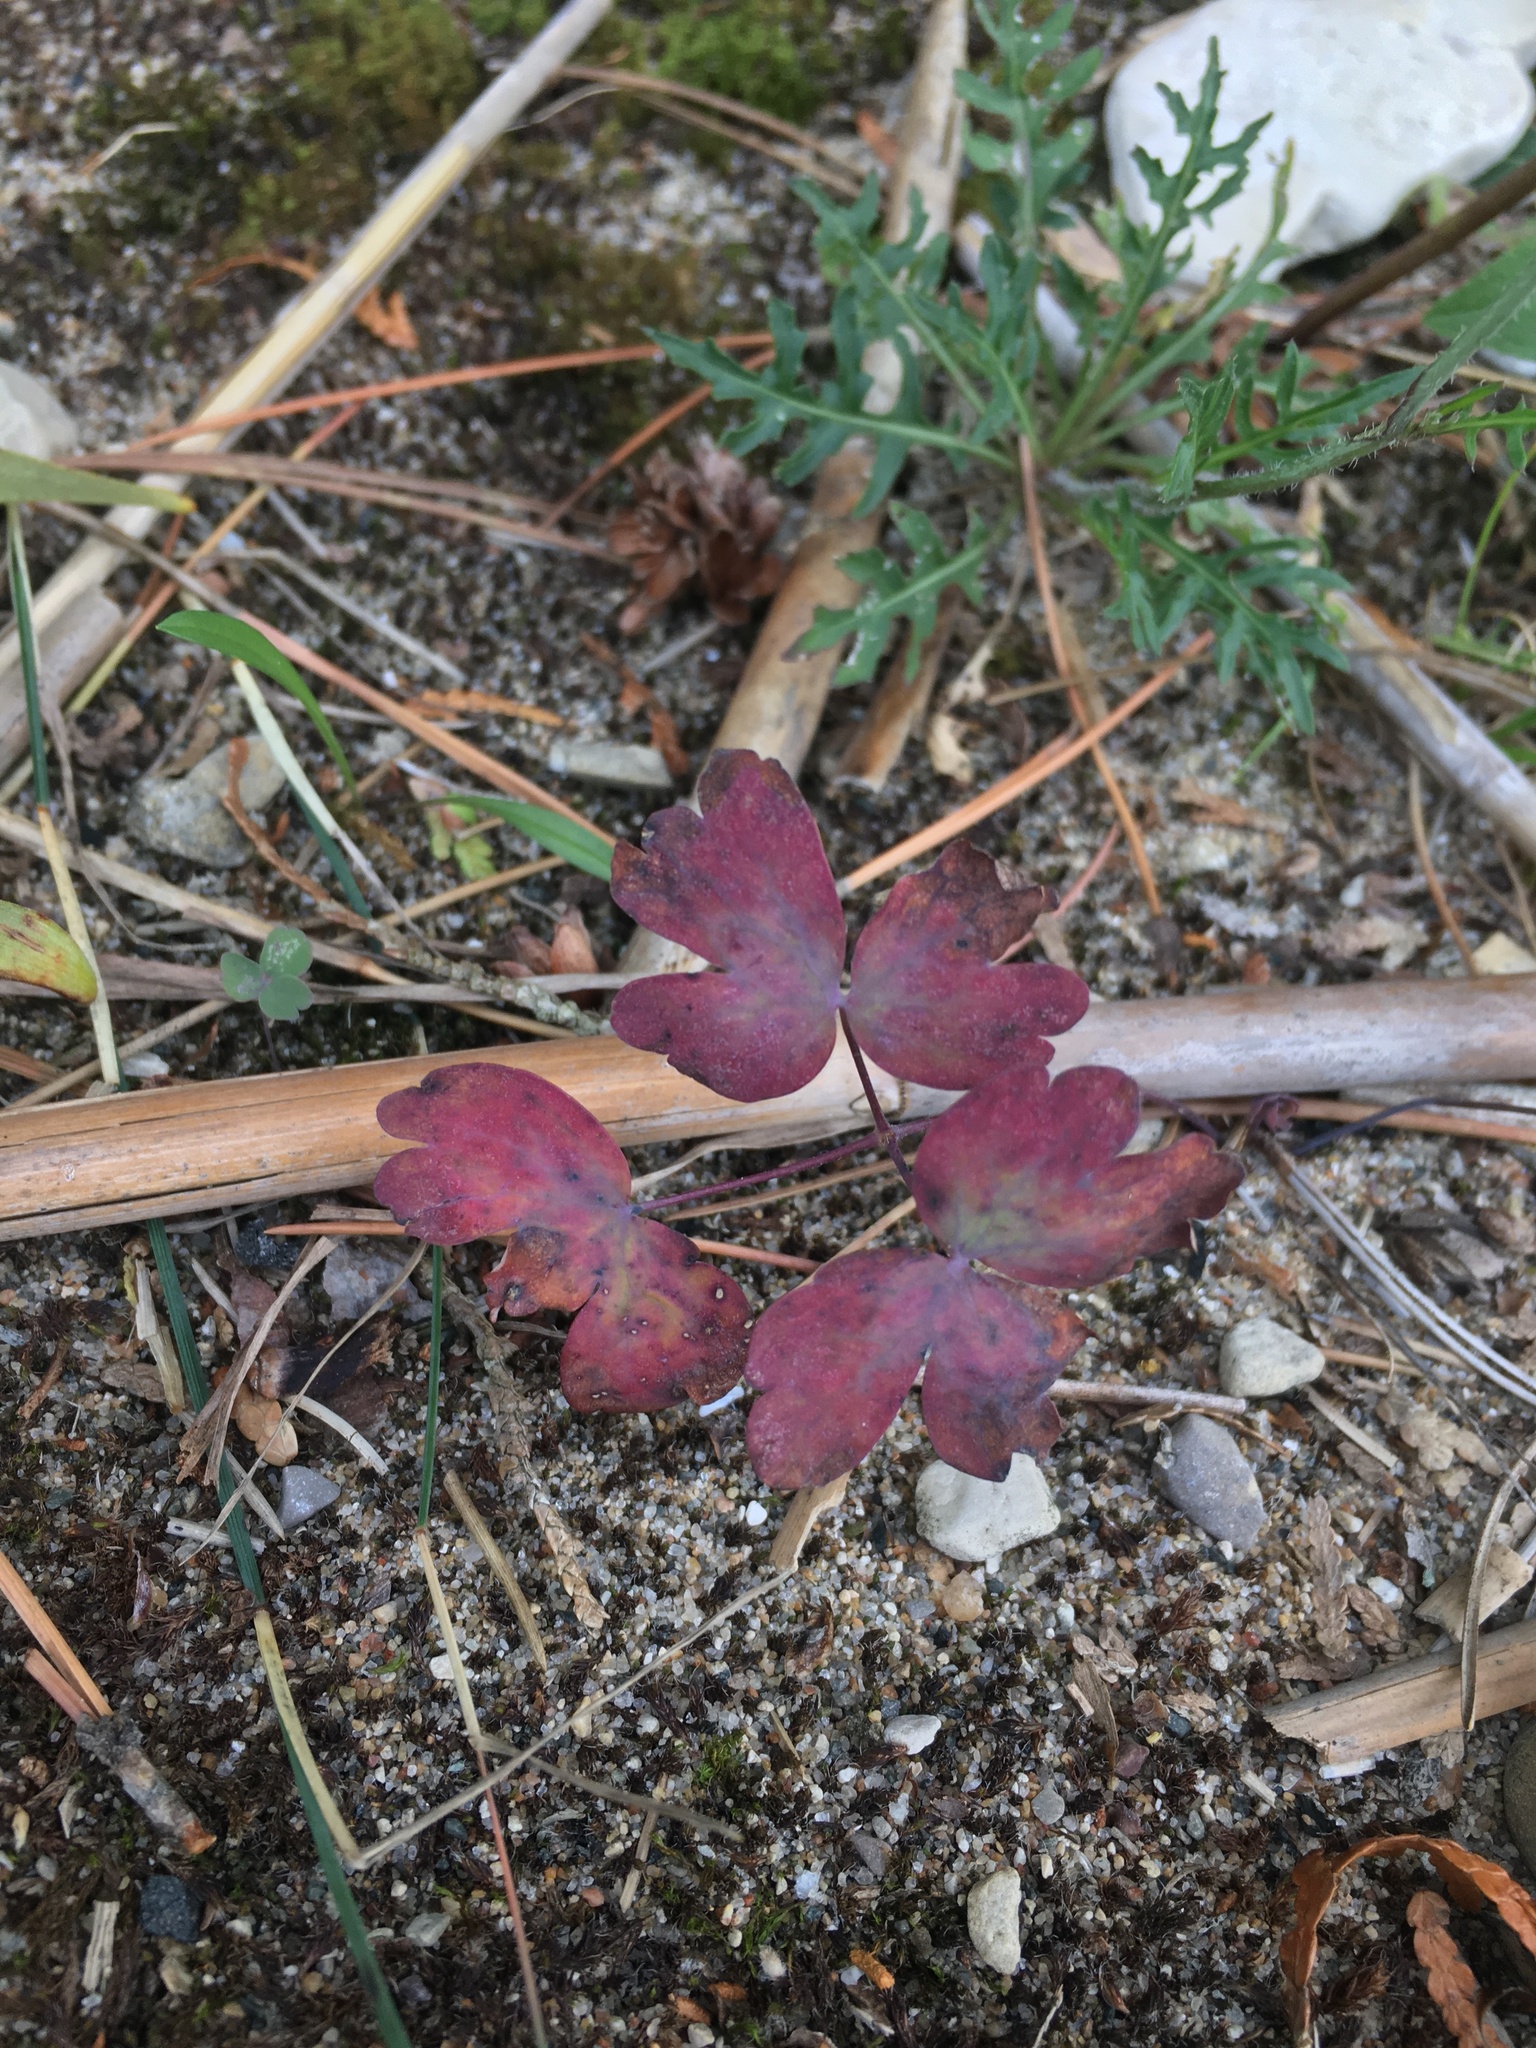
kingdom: Plantae
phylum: Tracheophyta
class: Magnoliopsida
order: Ranunculales
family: Ranunculaceae
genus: Aquilegia
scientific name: Aquilegia canadensis
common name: American columbine
